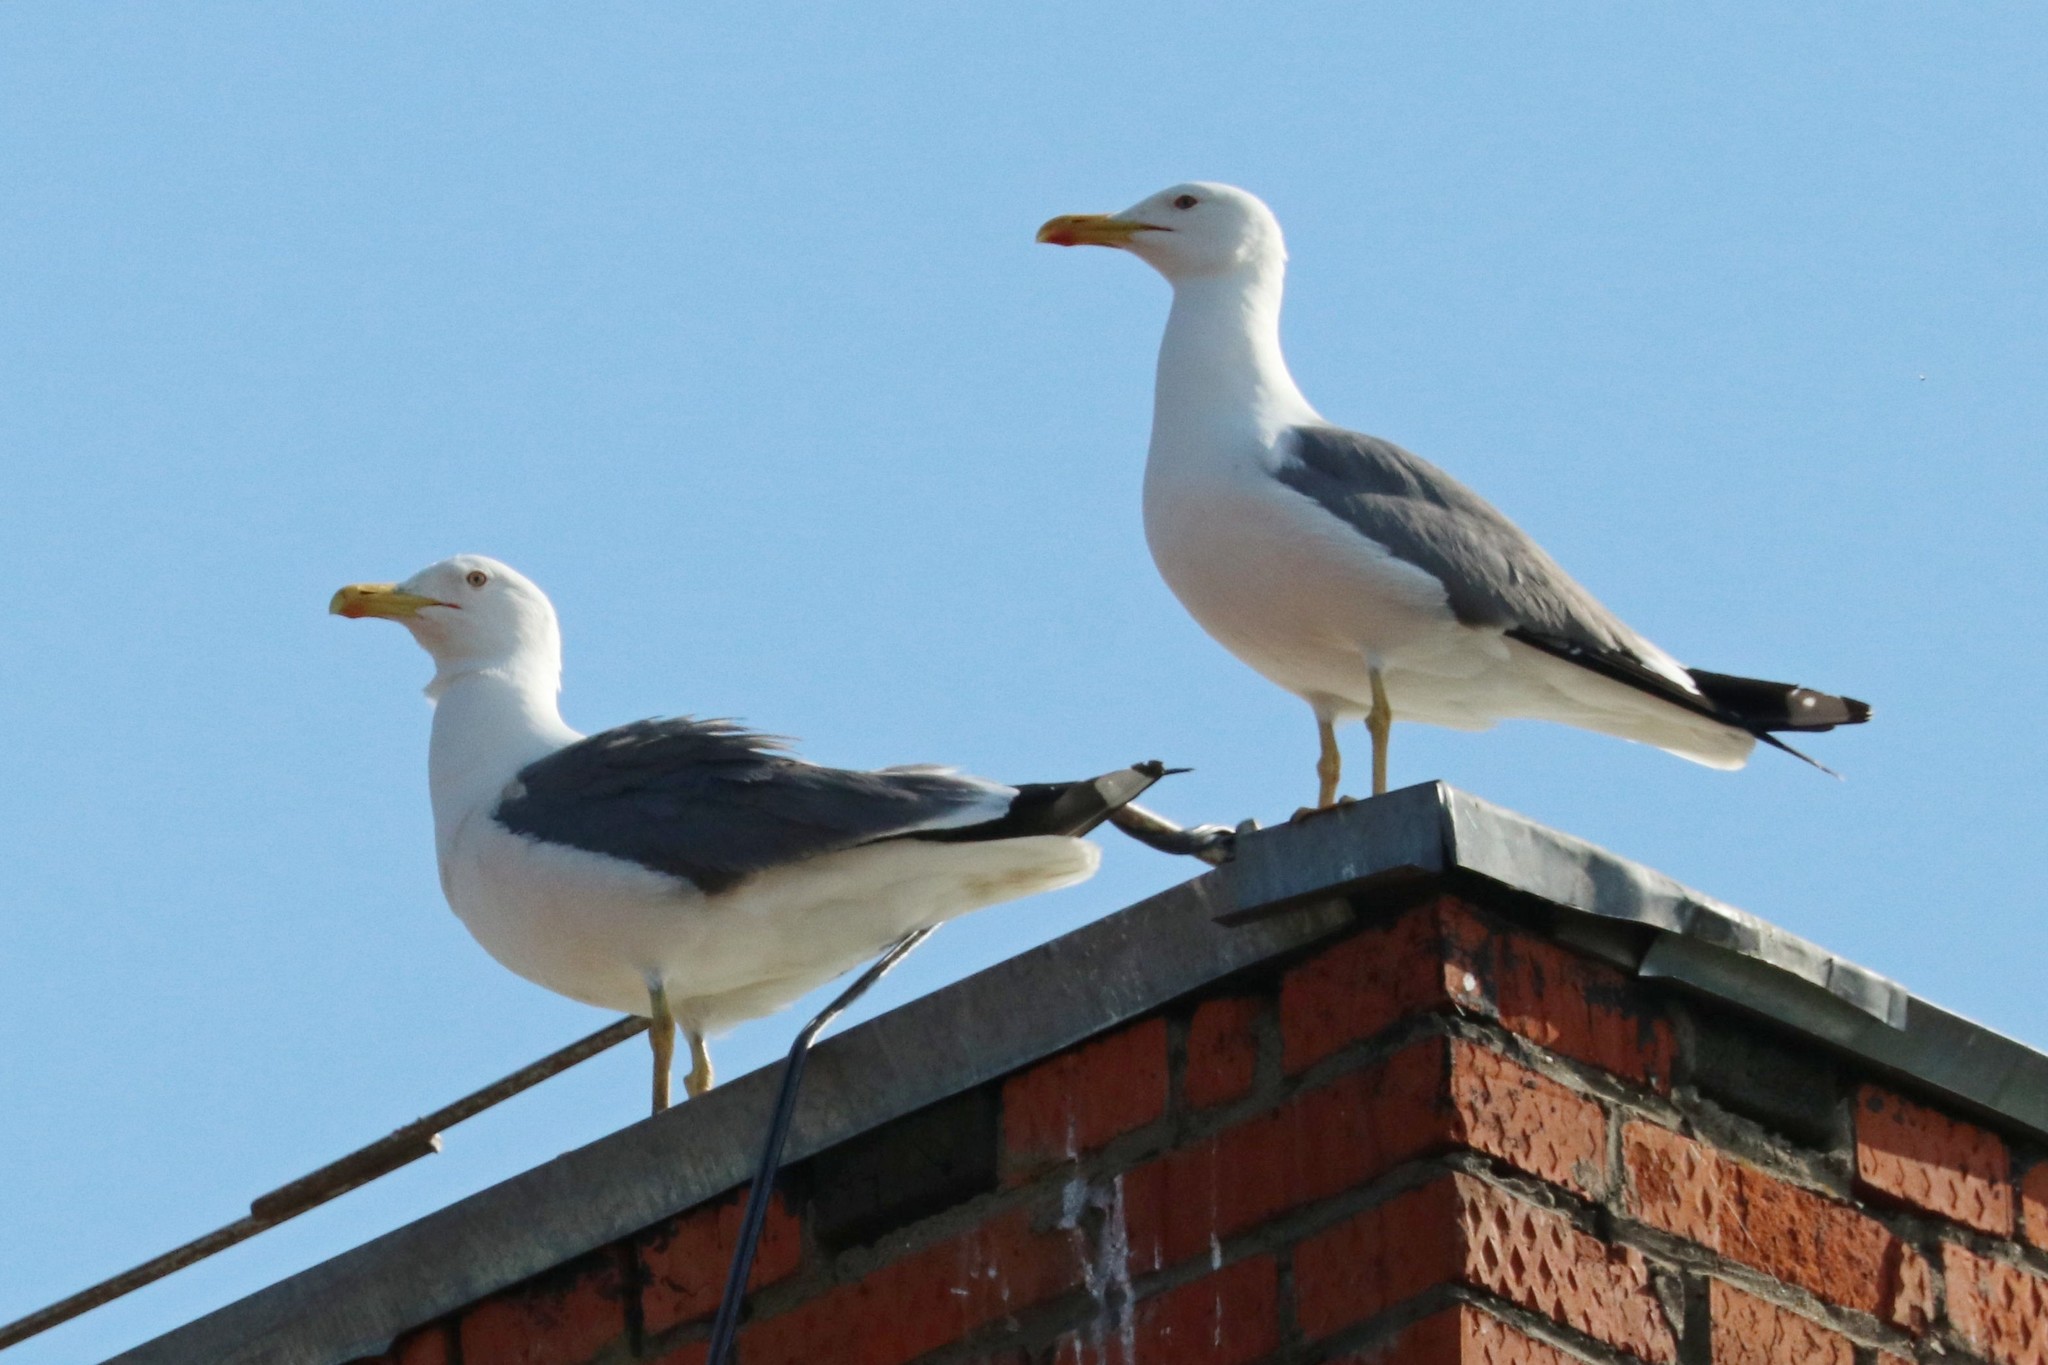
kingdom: Animalia
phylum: Chordata
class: Aves
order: Charadriiformes
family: Laridae
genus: Larus
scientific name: Larus fuscus
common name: Lesser black-backed gull
